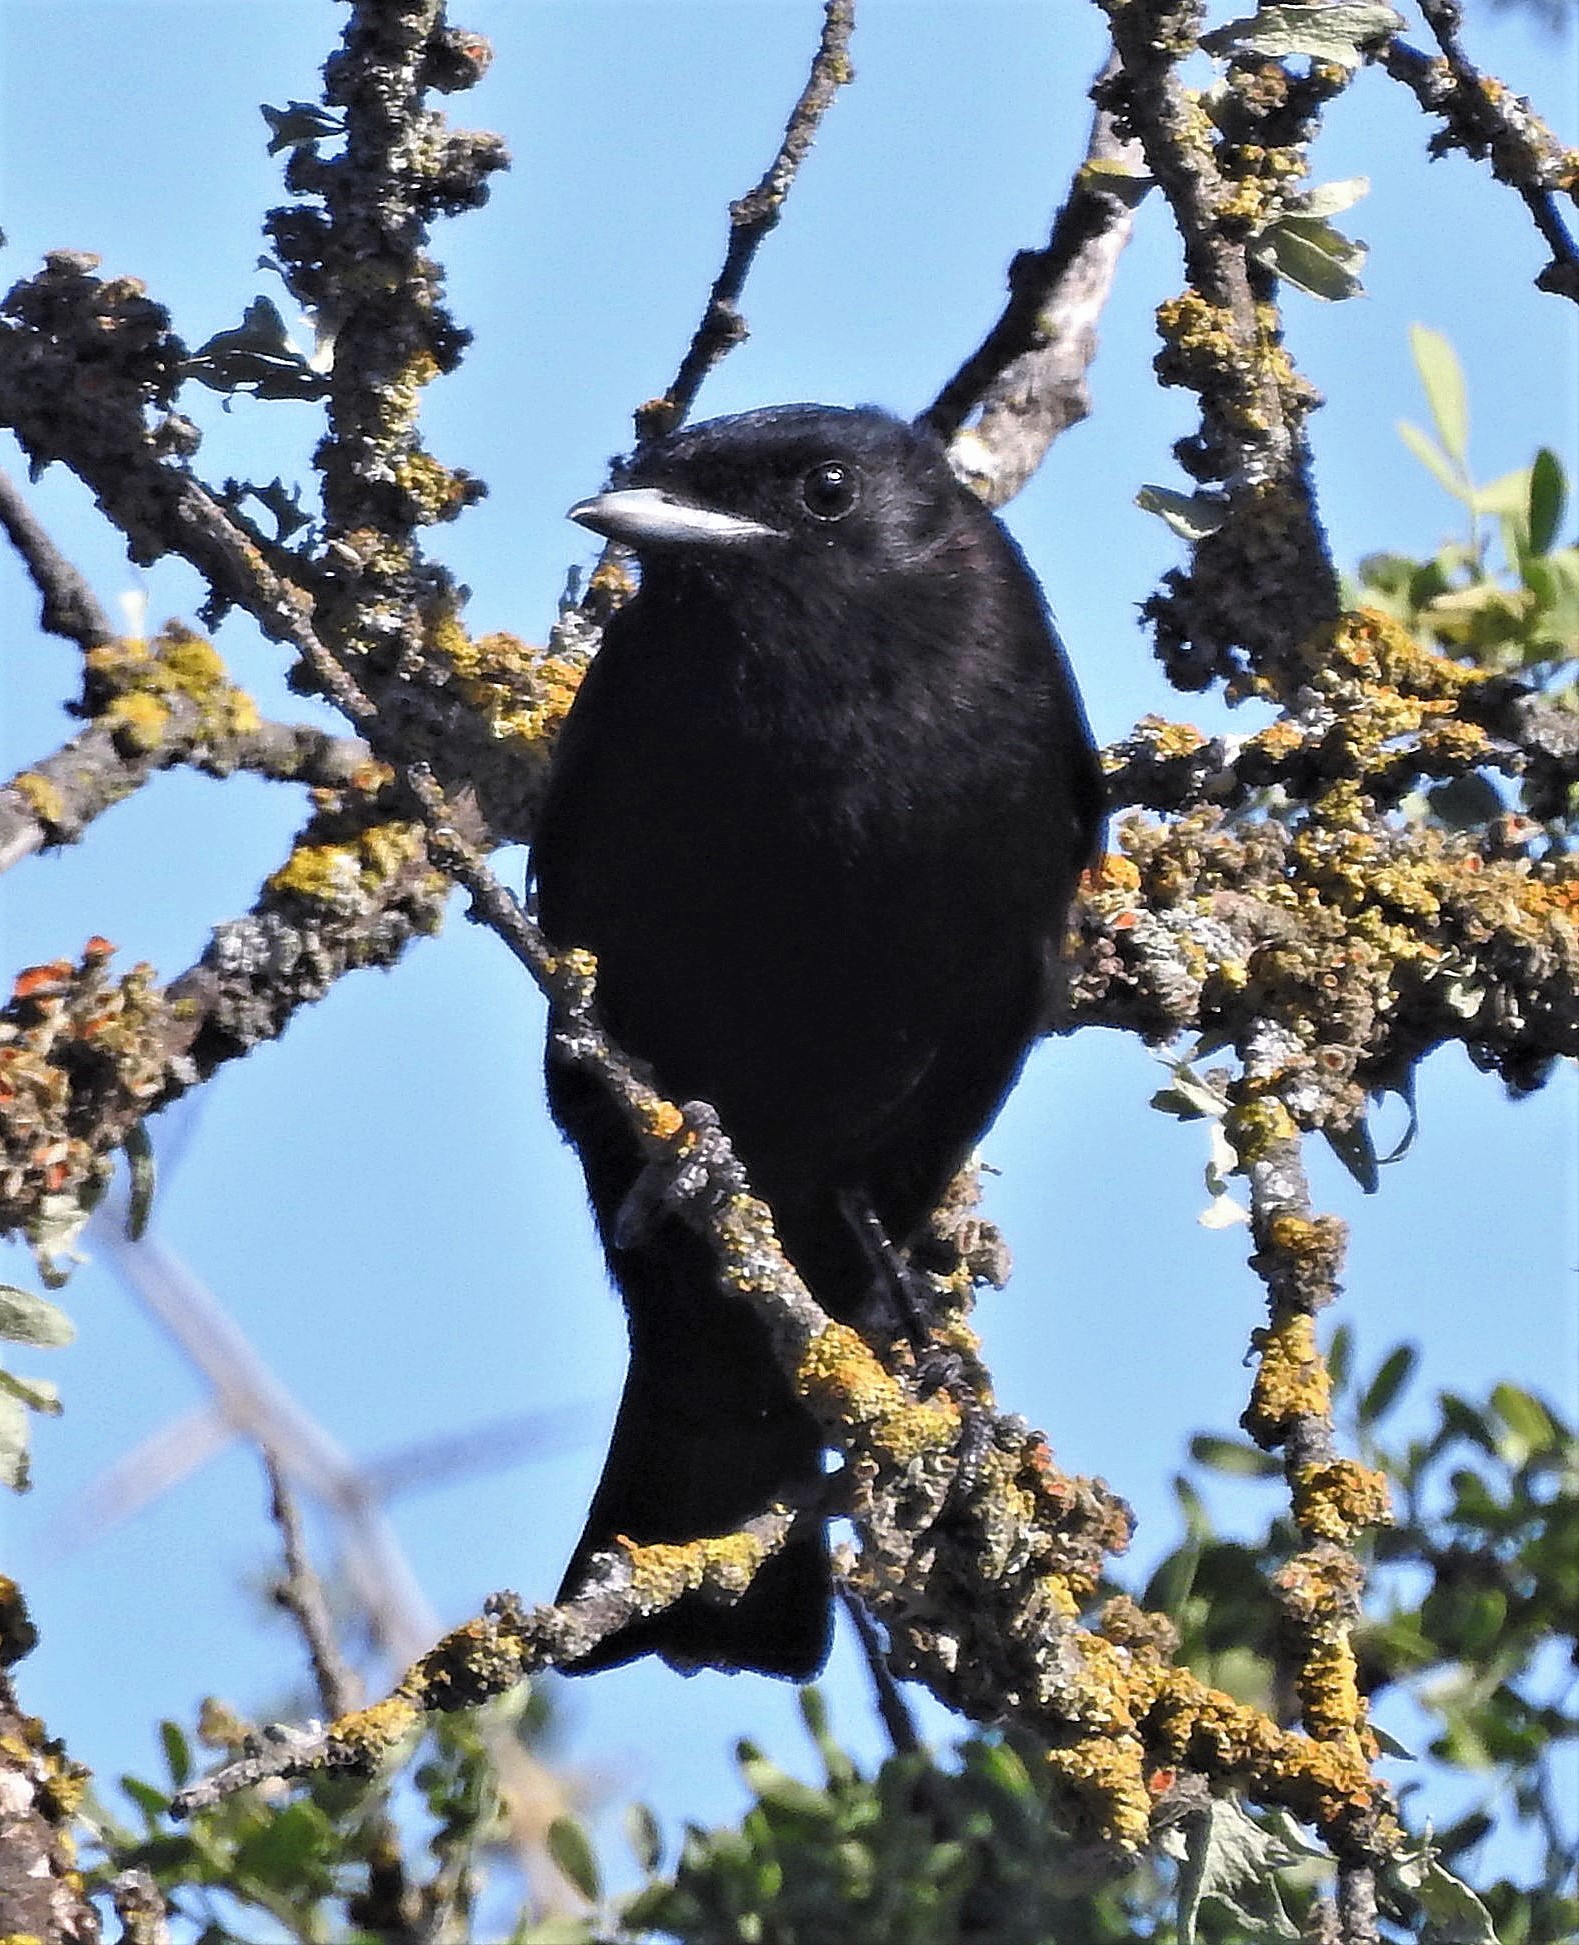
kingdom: Animalia
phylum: Chordata
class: Aves
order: Passeriformes
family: Tyrannidae
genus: Knipolegus
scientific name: Knipolegus hudsoni
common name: Hudson's black tyrant
